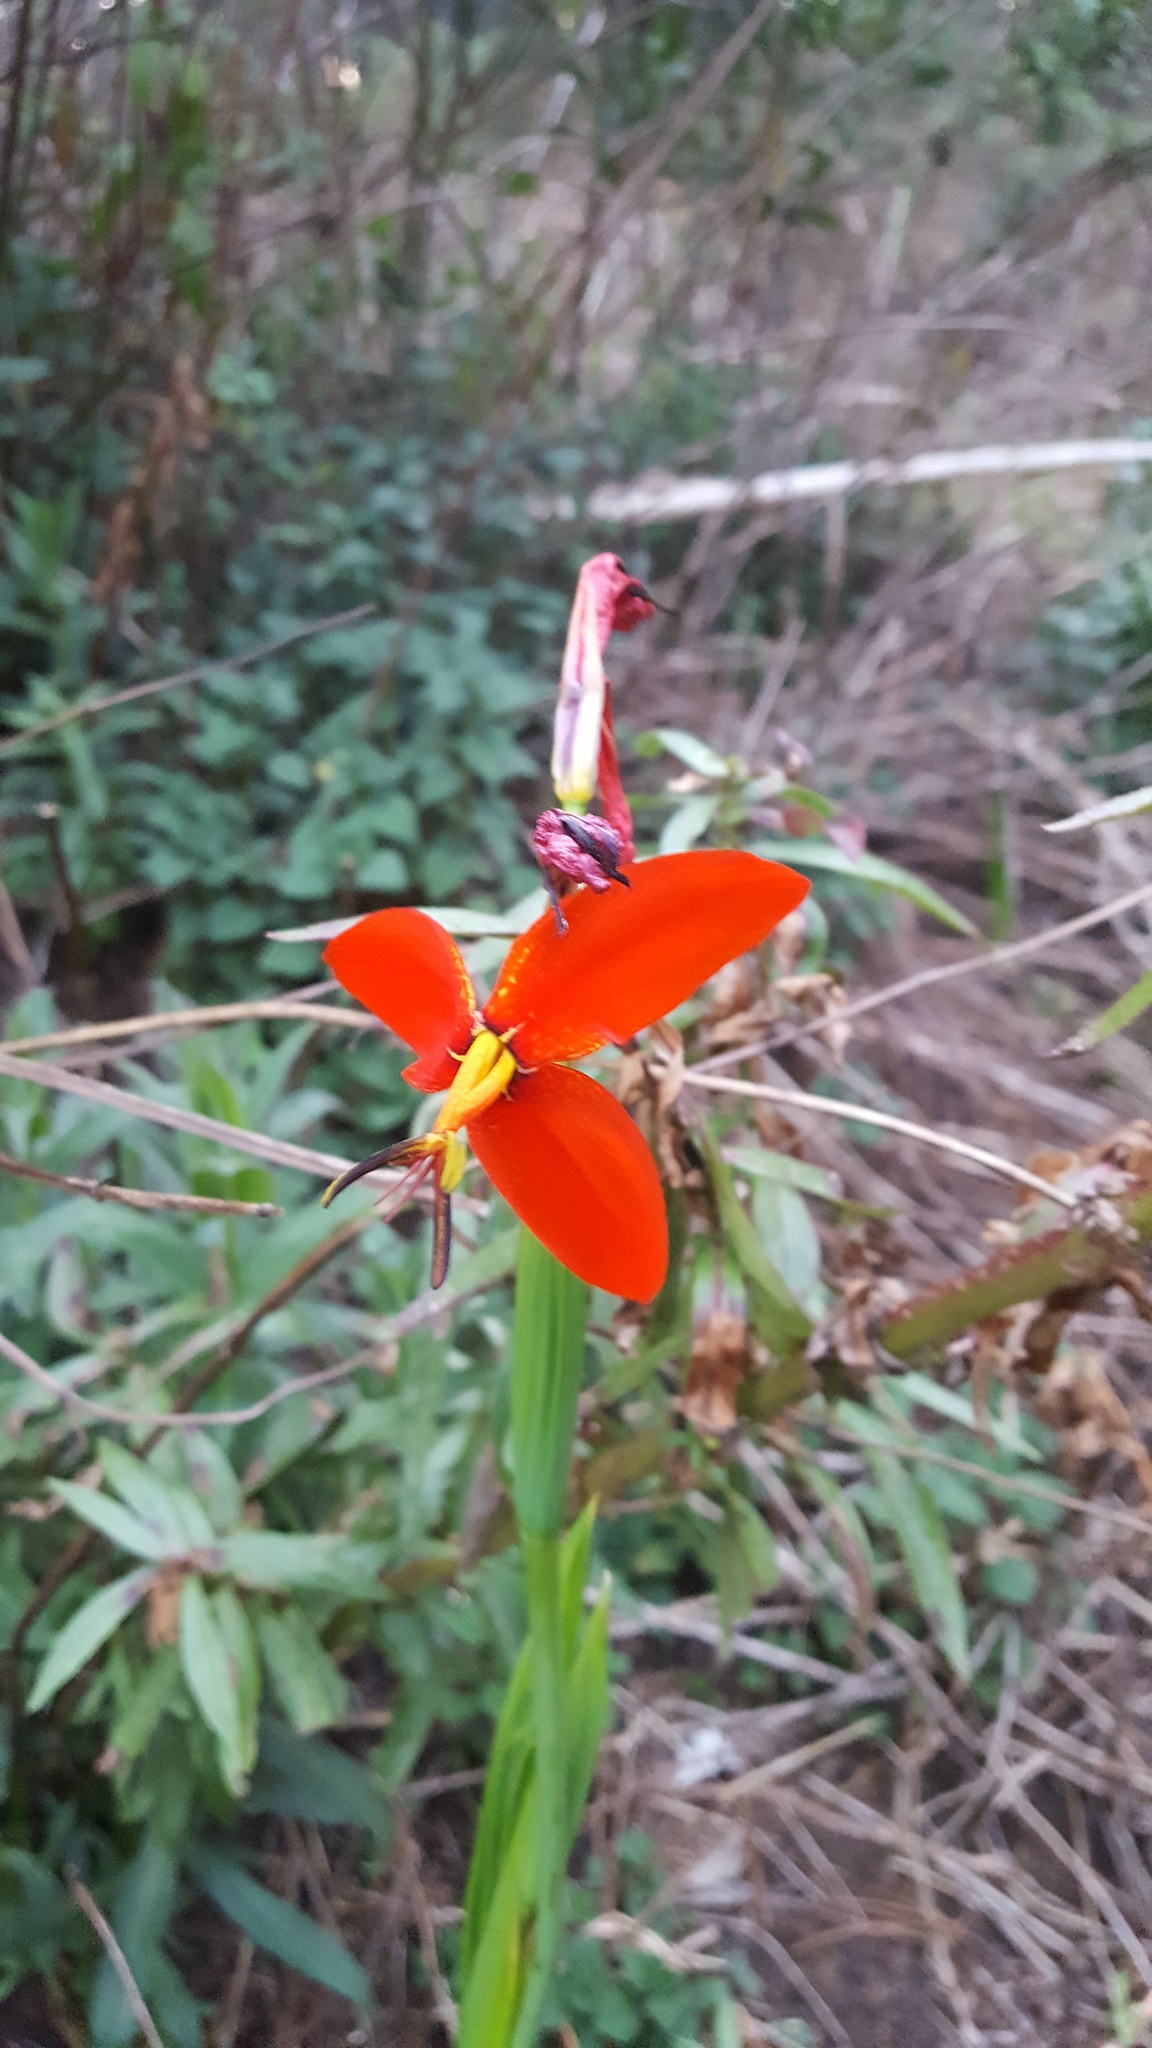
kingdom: Plantae
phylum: Tracheophyta
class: Liliopsida
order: Asparagales
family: Iridaceae
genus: Tigridia
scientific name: Tigridia orthantha
